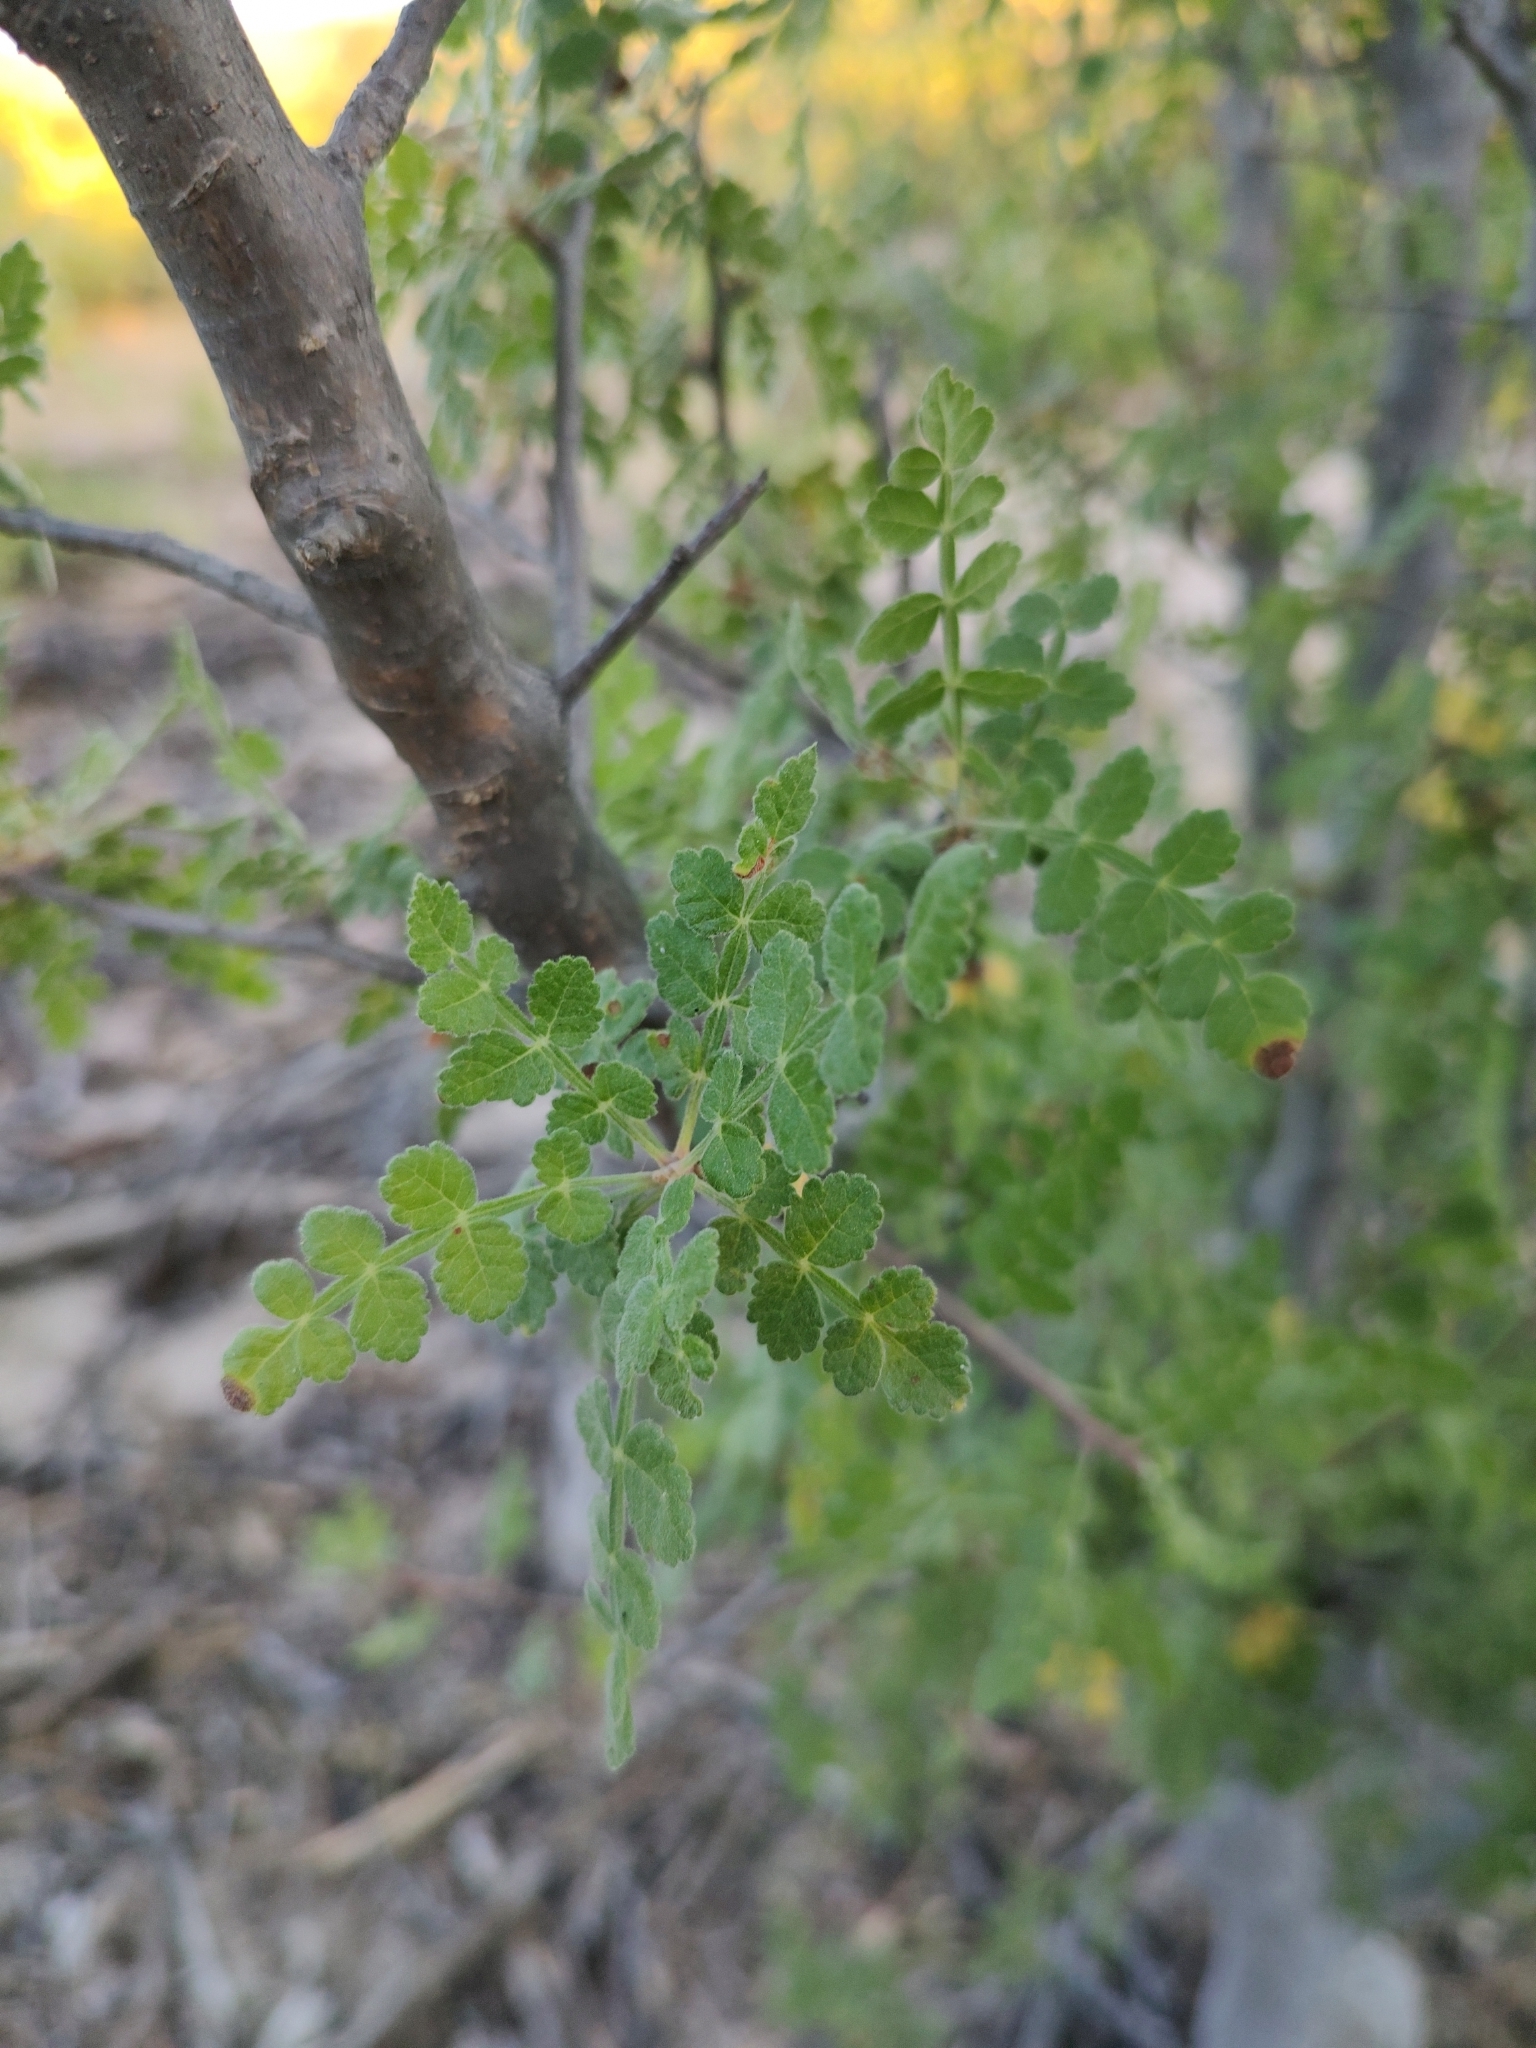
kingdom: Plantae
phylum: Tracheophyta
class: Magnoliopsida
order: Sapindales
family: Burseraceae
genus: Bursera
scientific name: Bursera filicifolia
